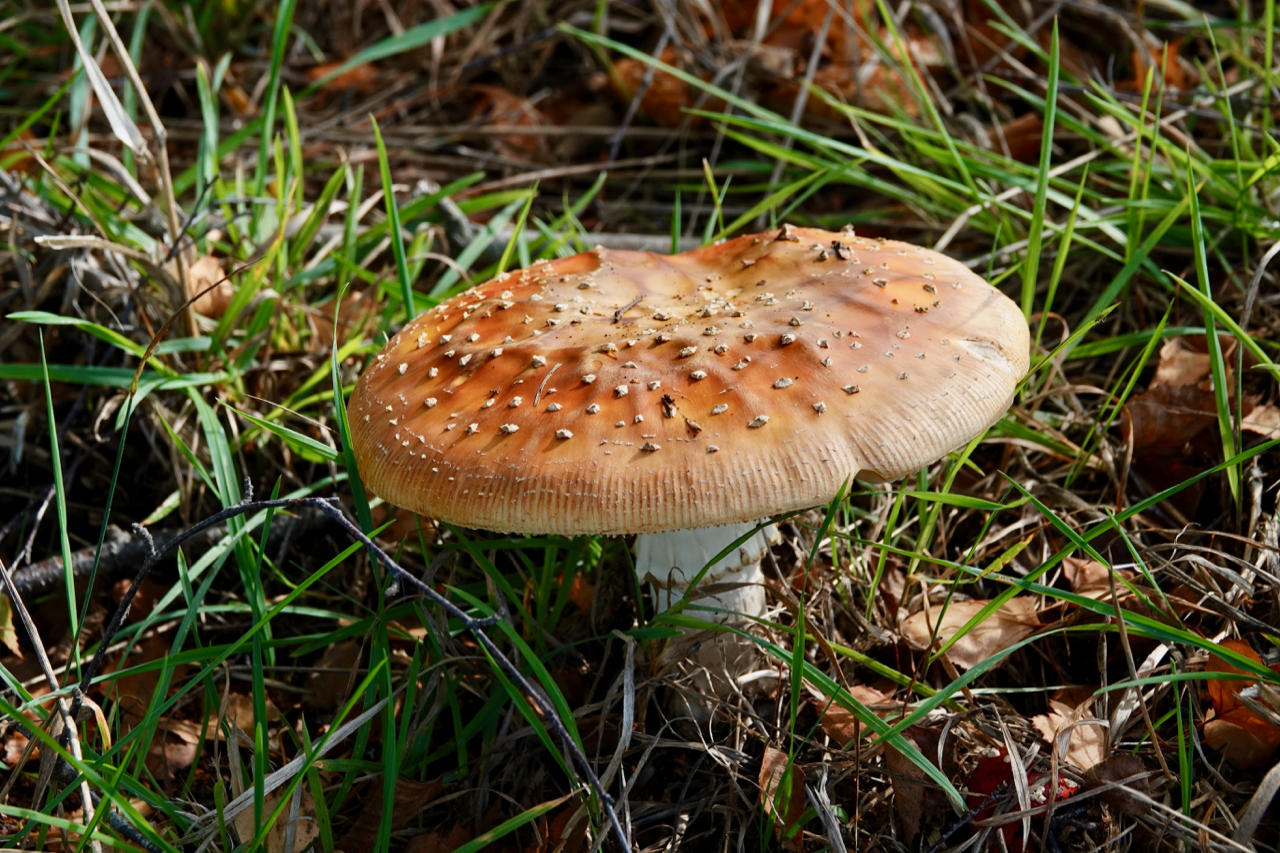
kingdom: Fungi
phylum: Basidiomycota
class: Agaricomycetes
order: Agaricales
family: Amanitaceae
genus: Amanita
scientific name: Amanita muscaria
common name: Fly agaric
